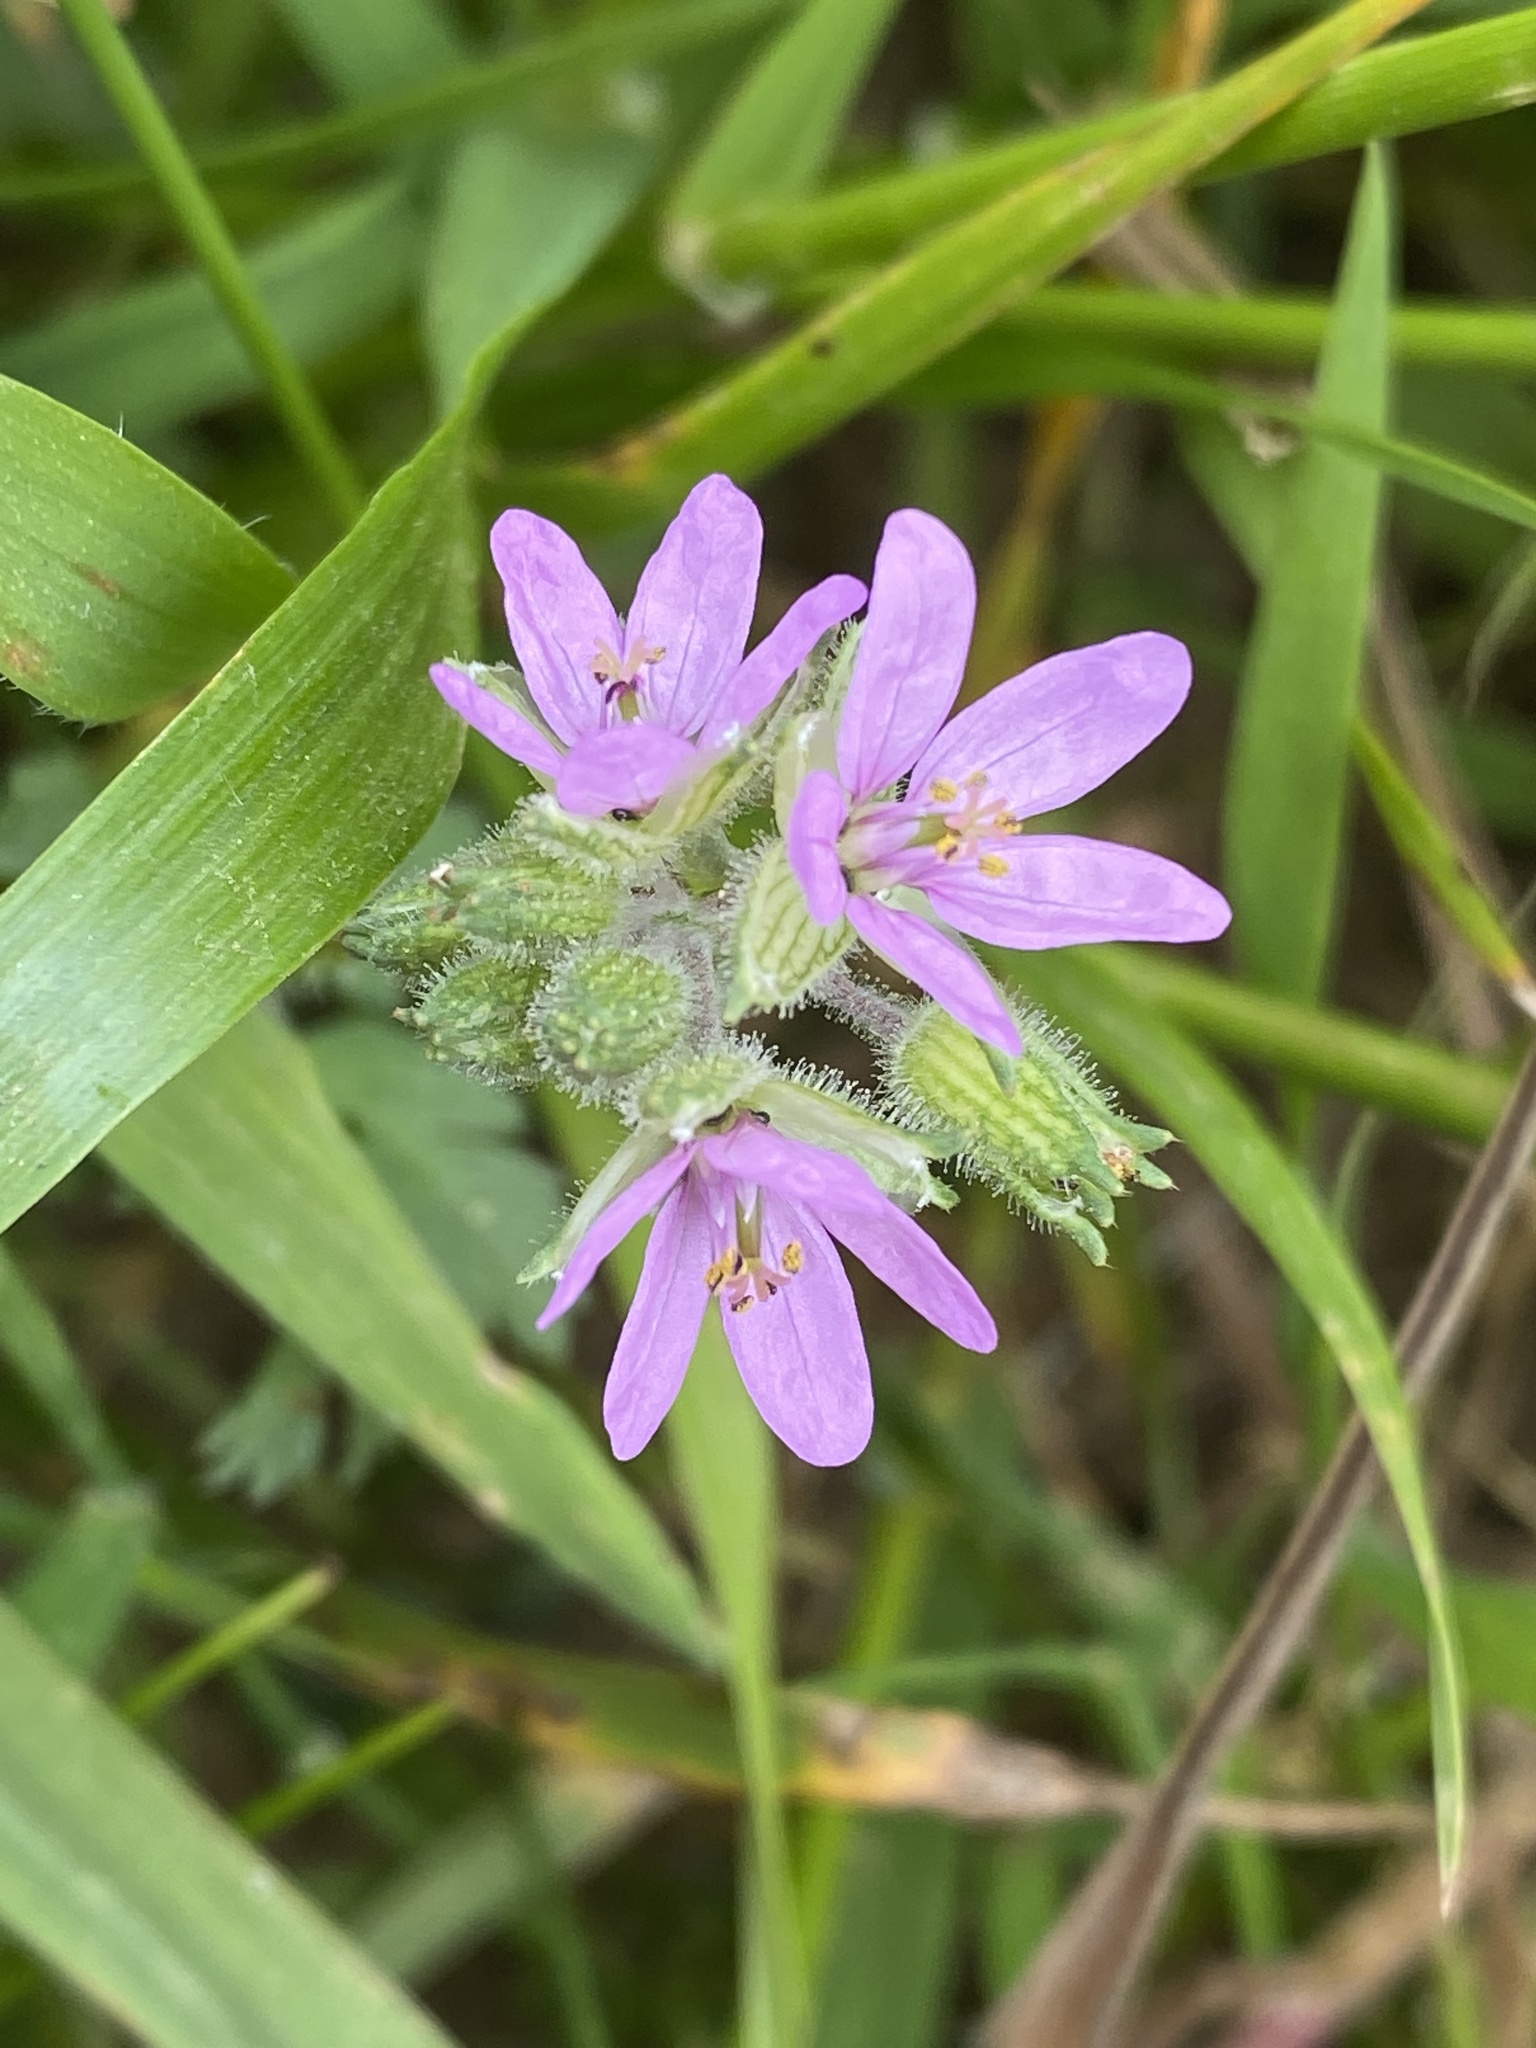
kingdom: Plantae
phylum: Tracheophyta
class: Magnoliopsida
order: Geraniales
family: Geraniaceae
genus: Erodium
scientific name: Erodium moschatum
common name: Musk stork's-bill
